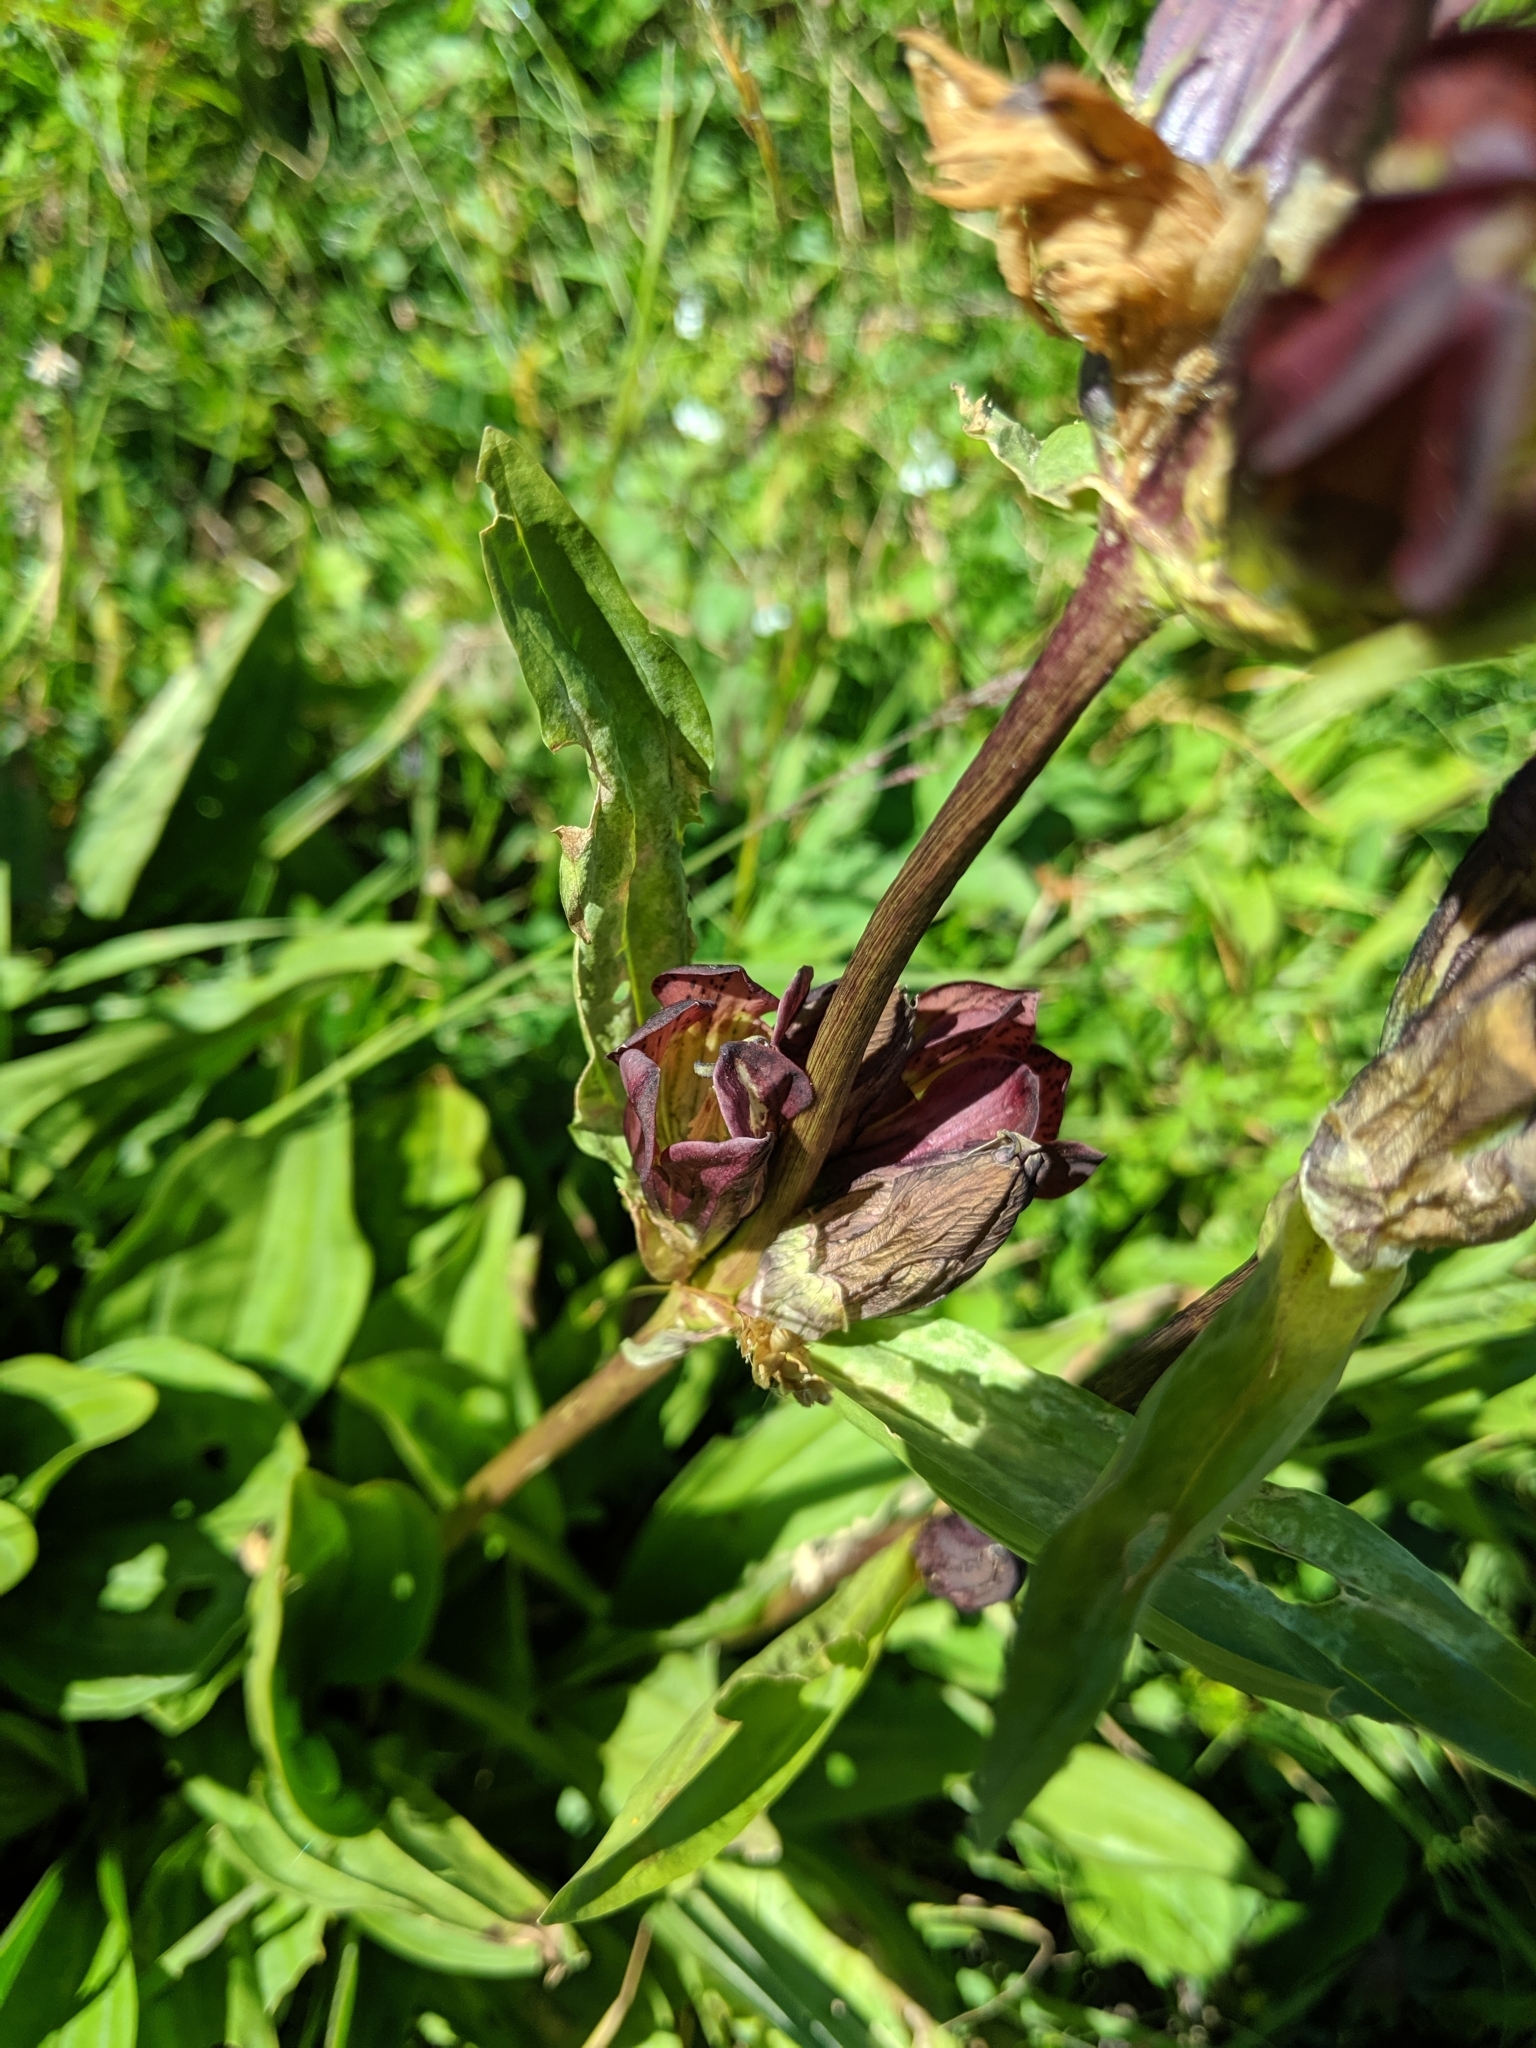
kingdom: Plantae
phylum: Tracheophyta
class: Magnoliopsida
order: Gentianales
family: Gentianaceae
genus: Gentiana
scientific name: Gentiana purpurea
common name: Purple gentian
